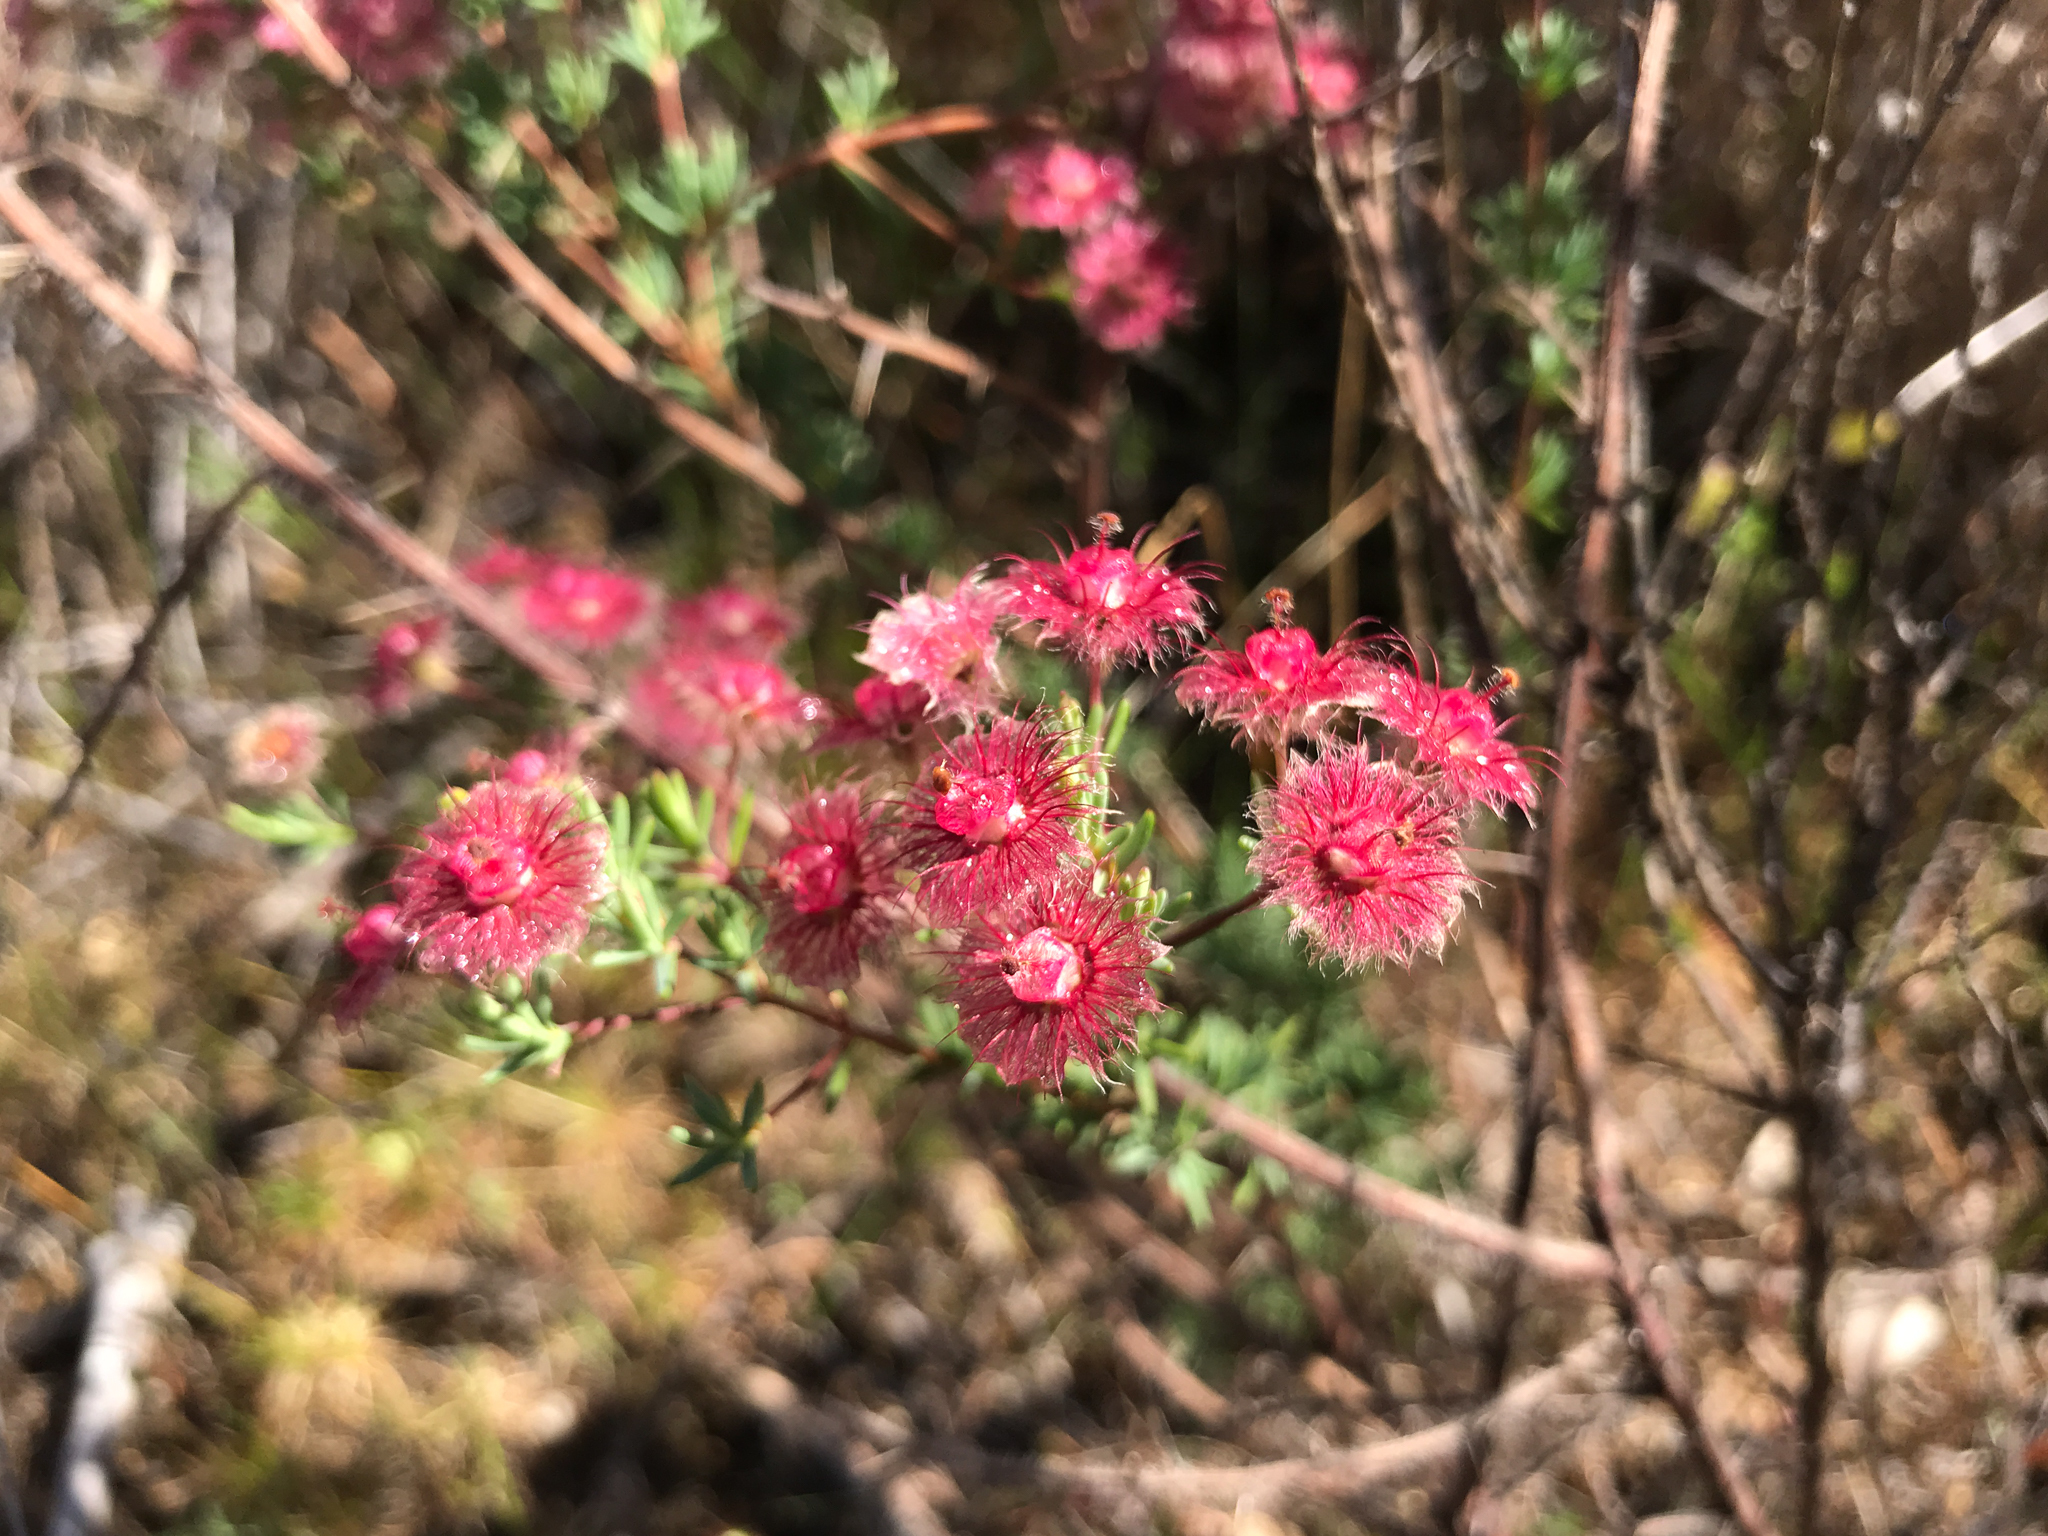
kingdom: Plantae
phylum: Tracheophyta
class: Magnoliopsida
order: Myrtales
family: Myrtaceae
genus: Verticordia
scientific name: Verticordia huegelii
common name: Variegate feather-flower
